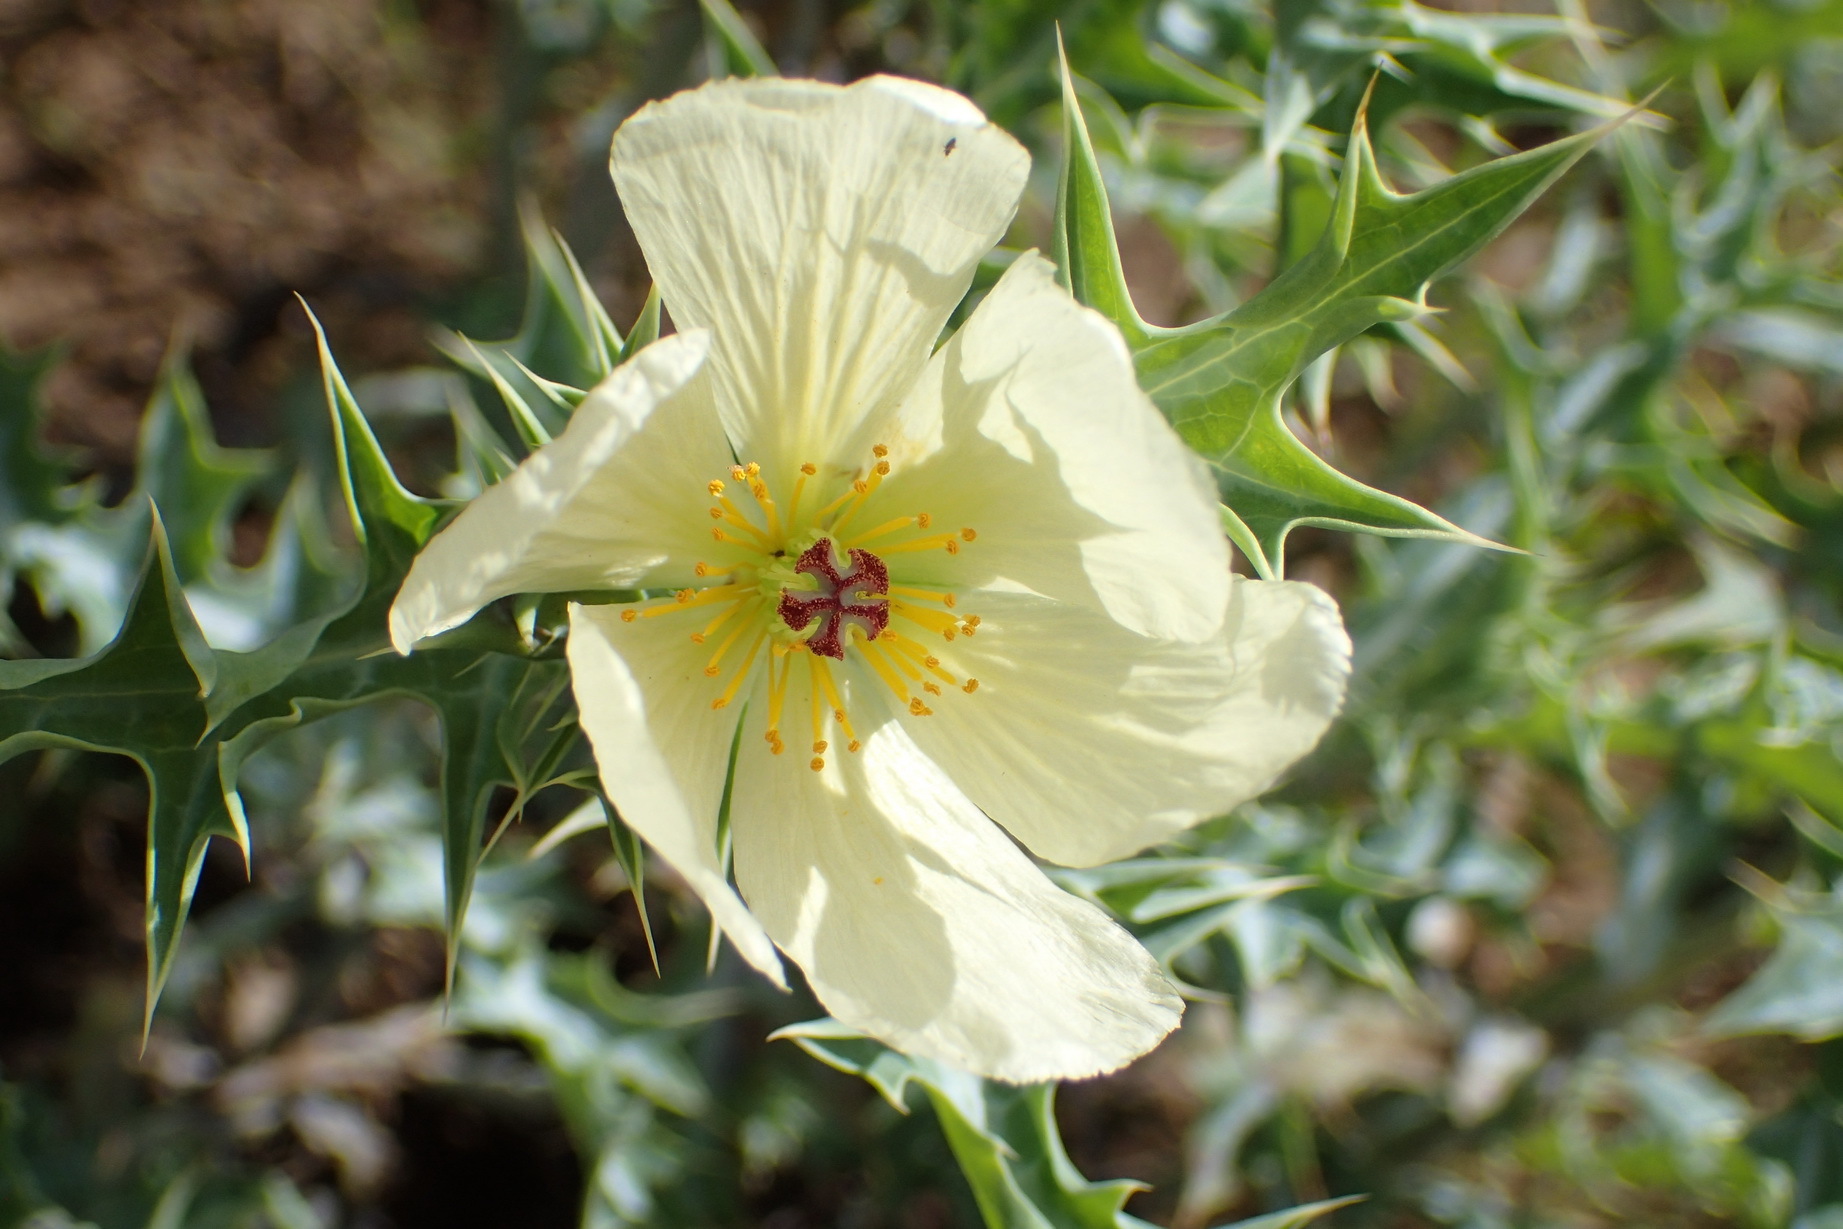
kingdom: Plantae
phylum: Tracheophyta
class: Magnoliopsida
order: Ranunculales
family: Papaveraceae
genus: Argemone
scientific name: Argemone ochroleuca
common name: White-flower mexican-poppy
